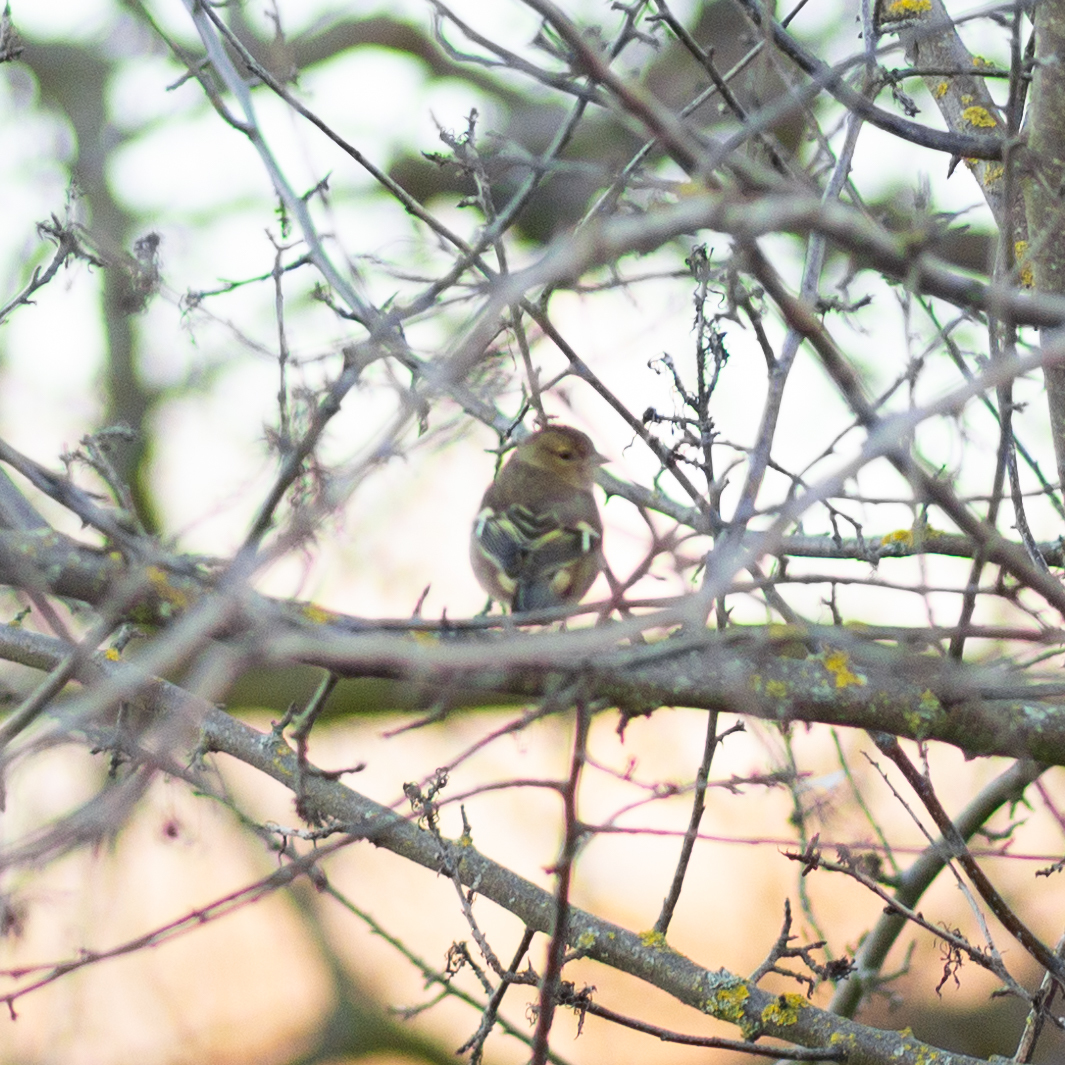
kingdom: Animalia
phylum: Chordata
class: Aves
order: Passeriformes
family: Fringillidae
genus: Fringilla
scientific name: Fringilla coelebs
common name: Common chaffinch
